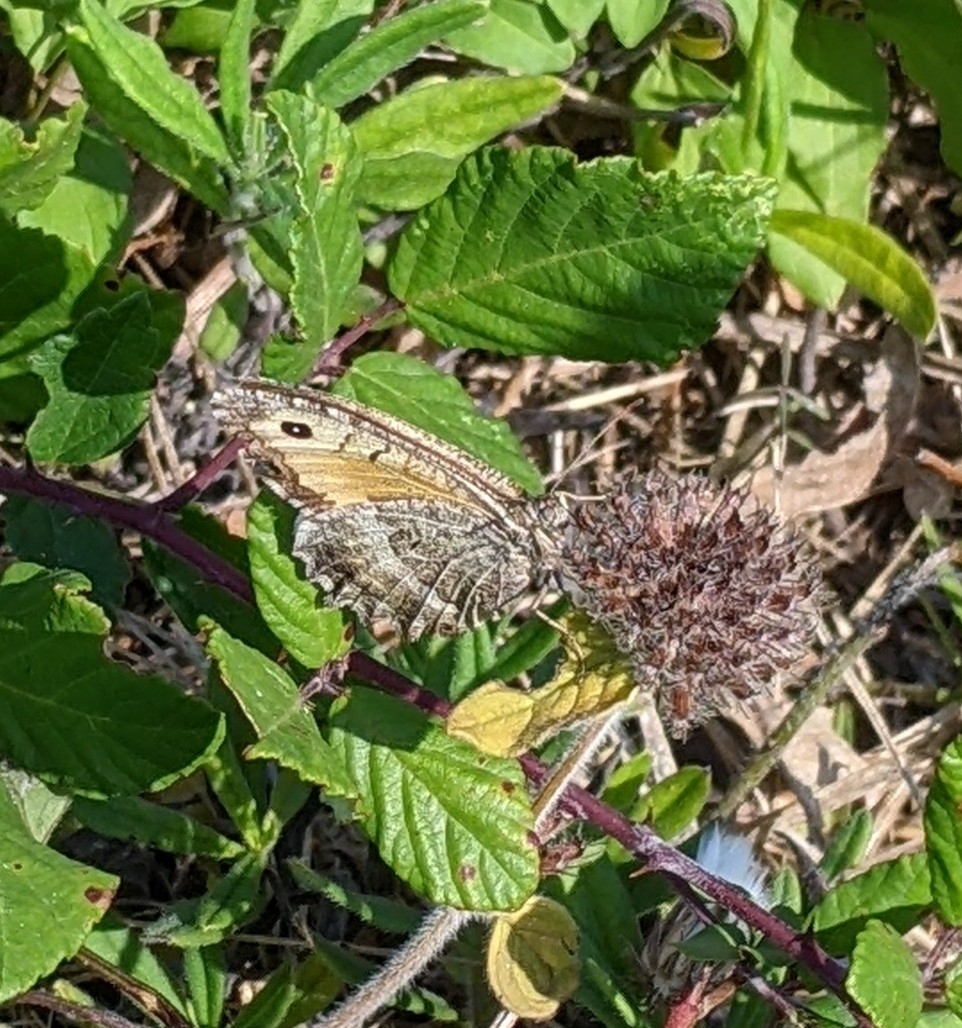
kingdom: Animalia
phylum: Arthropoda
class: Insecta
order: Lepidoptera
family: Nymphalidae
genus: Arethusana
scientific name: Arethusana arethusa
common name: False grayling
